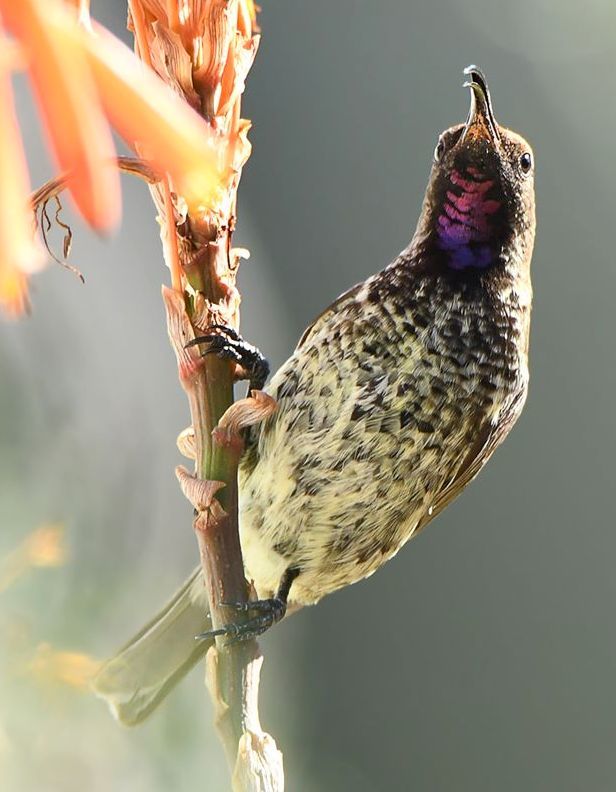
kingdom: Animalia
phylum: Chordata
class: Aves
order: Passeriformes
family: Nectariniidae
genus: Chalcomitra
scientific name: Chalcomitra amethystina
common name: Amethyst sunbird
